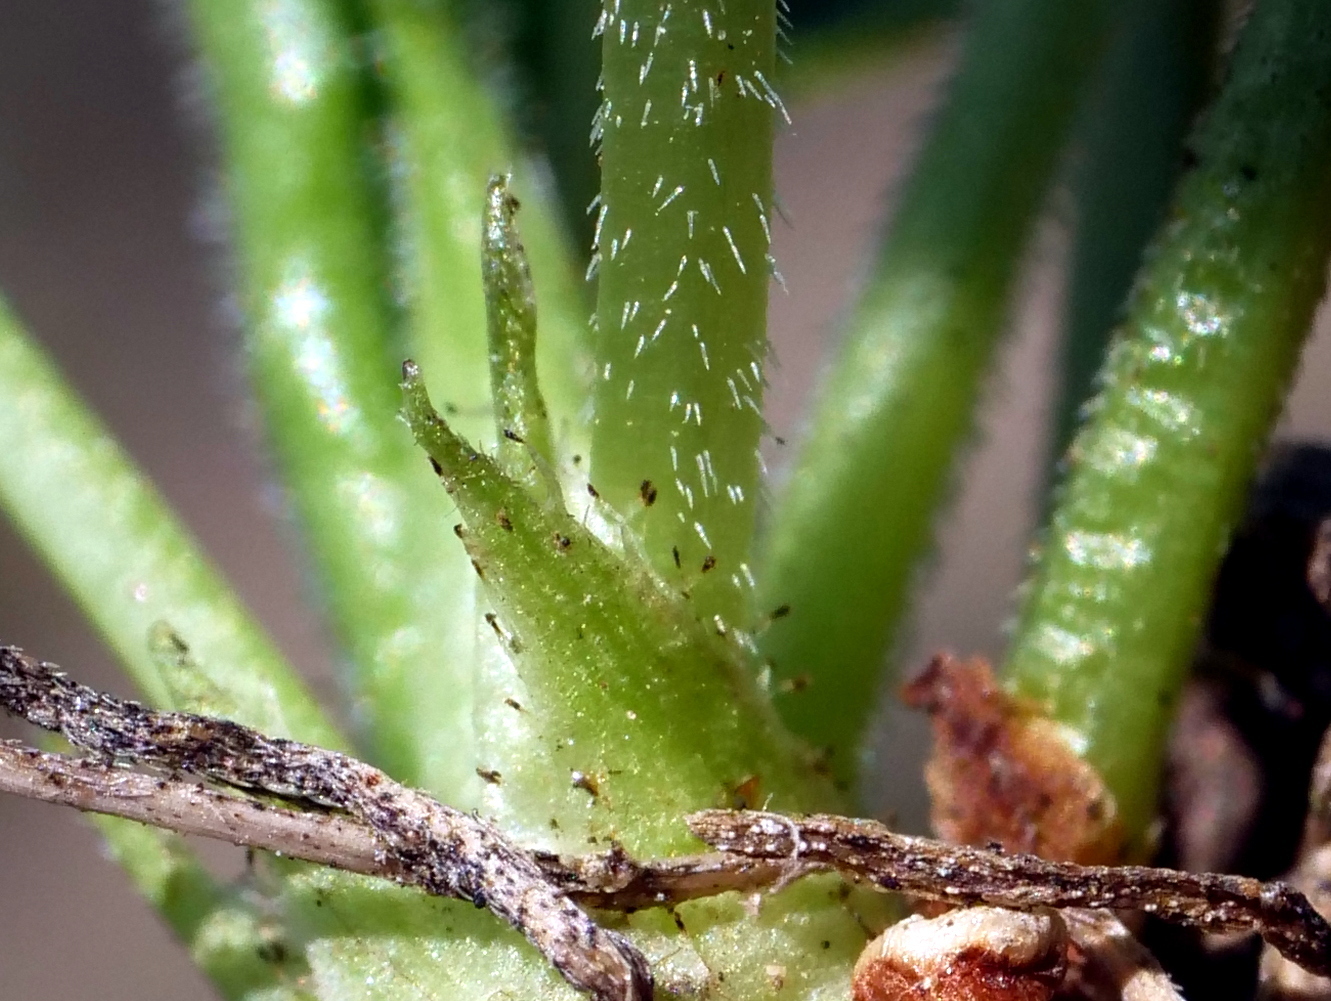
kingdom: Plantae
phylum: Tracheophyta
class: Magnoliopsida
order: Malpighiales
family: Violaceae
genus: Viola
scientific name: Viola hirta
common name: Hairy violet
